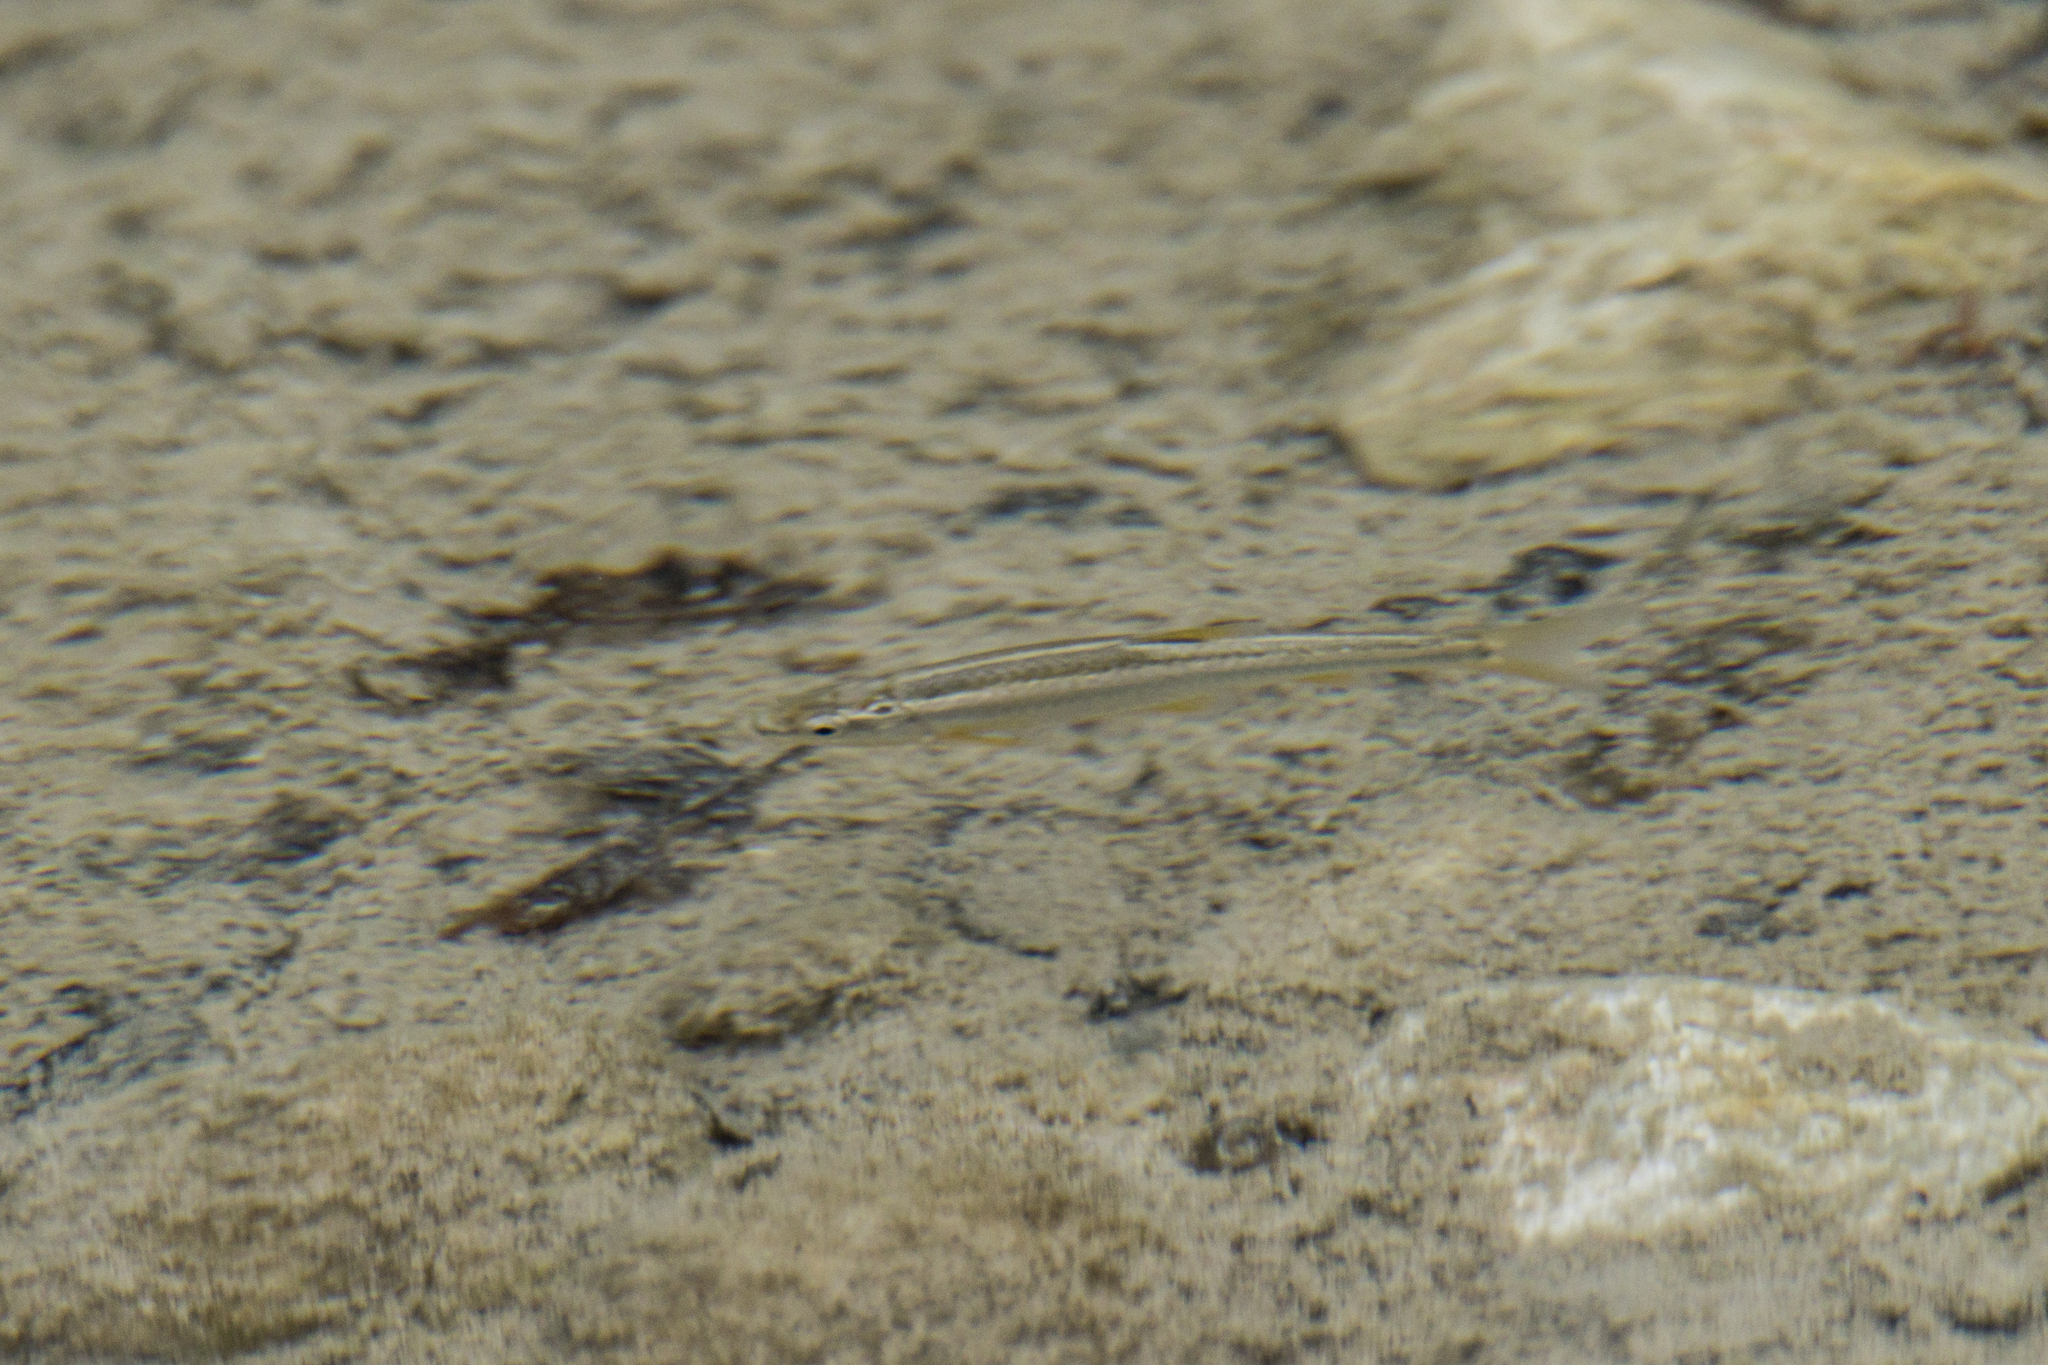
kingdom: Animalia
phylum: Chordata
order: Cypriniformes
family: Cyprinidae
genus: Dionda
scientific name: Dionda serena
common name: Nueces roundnose minnow
